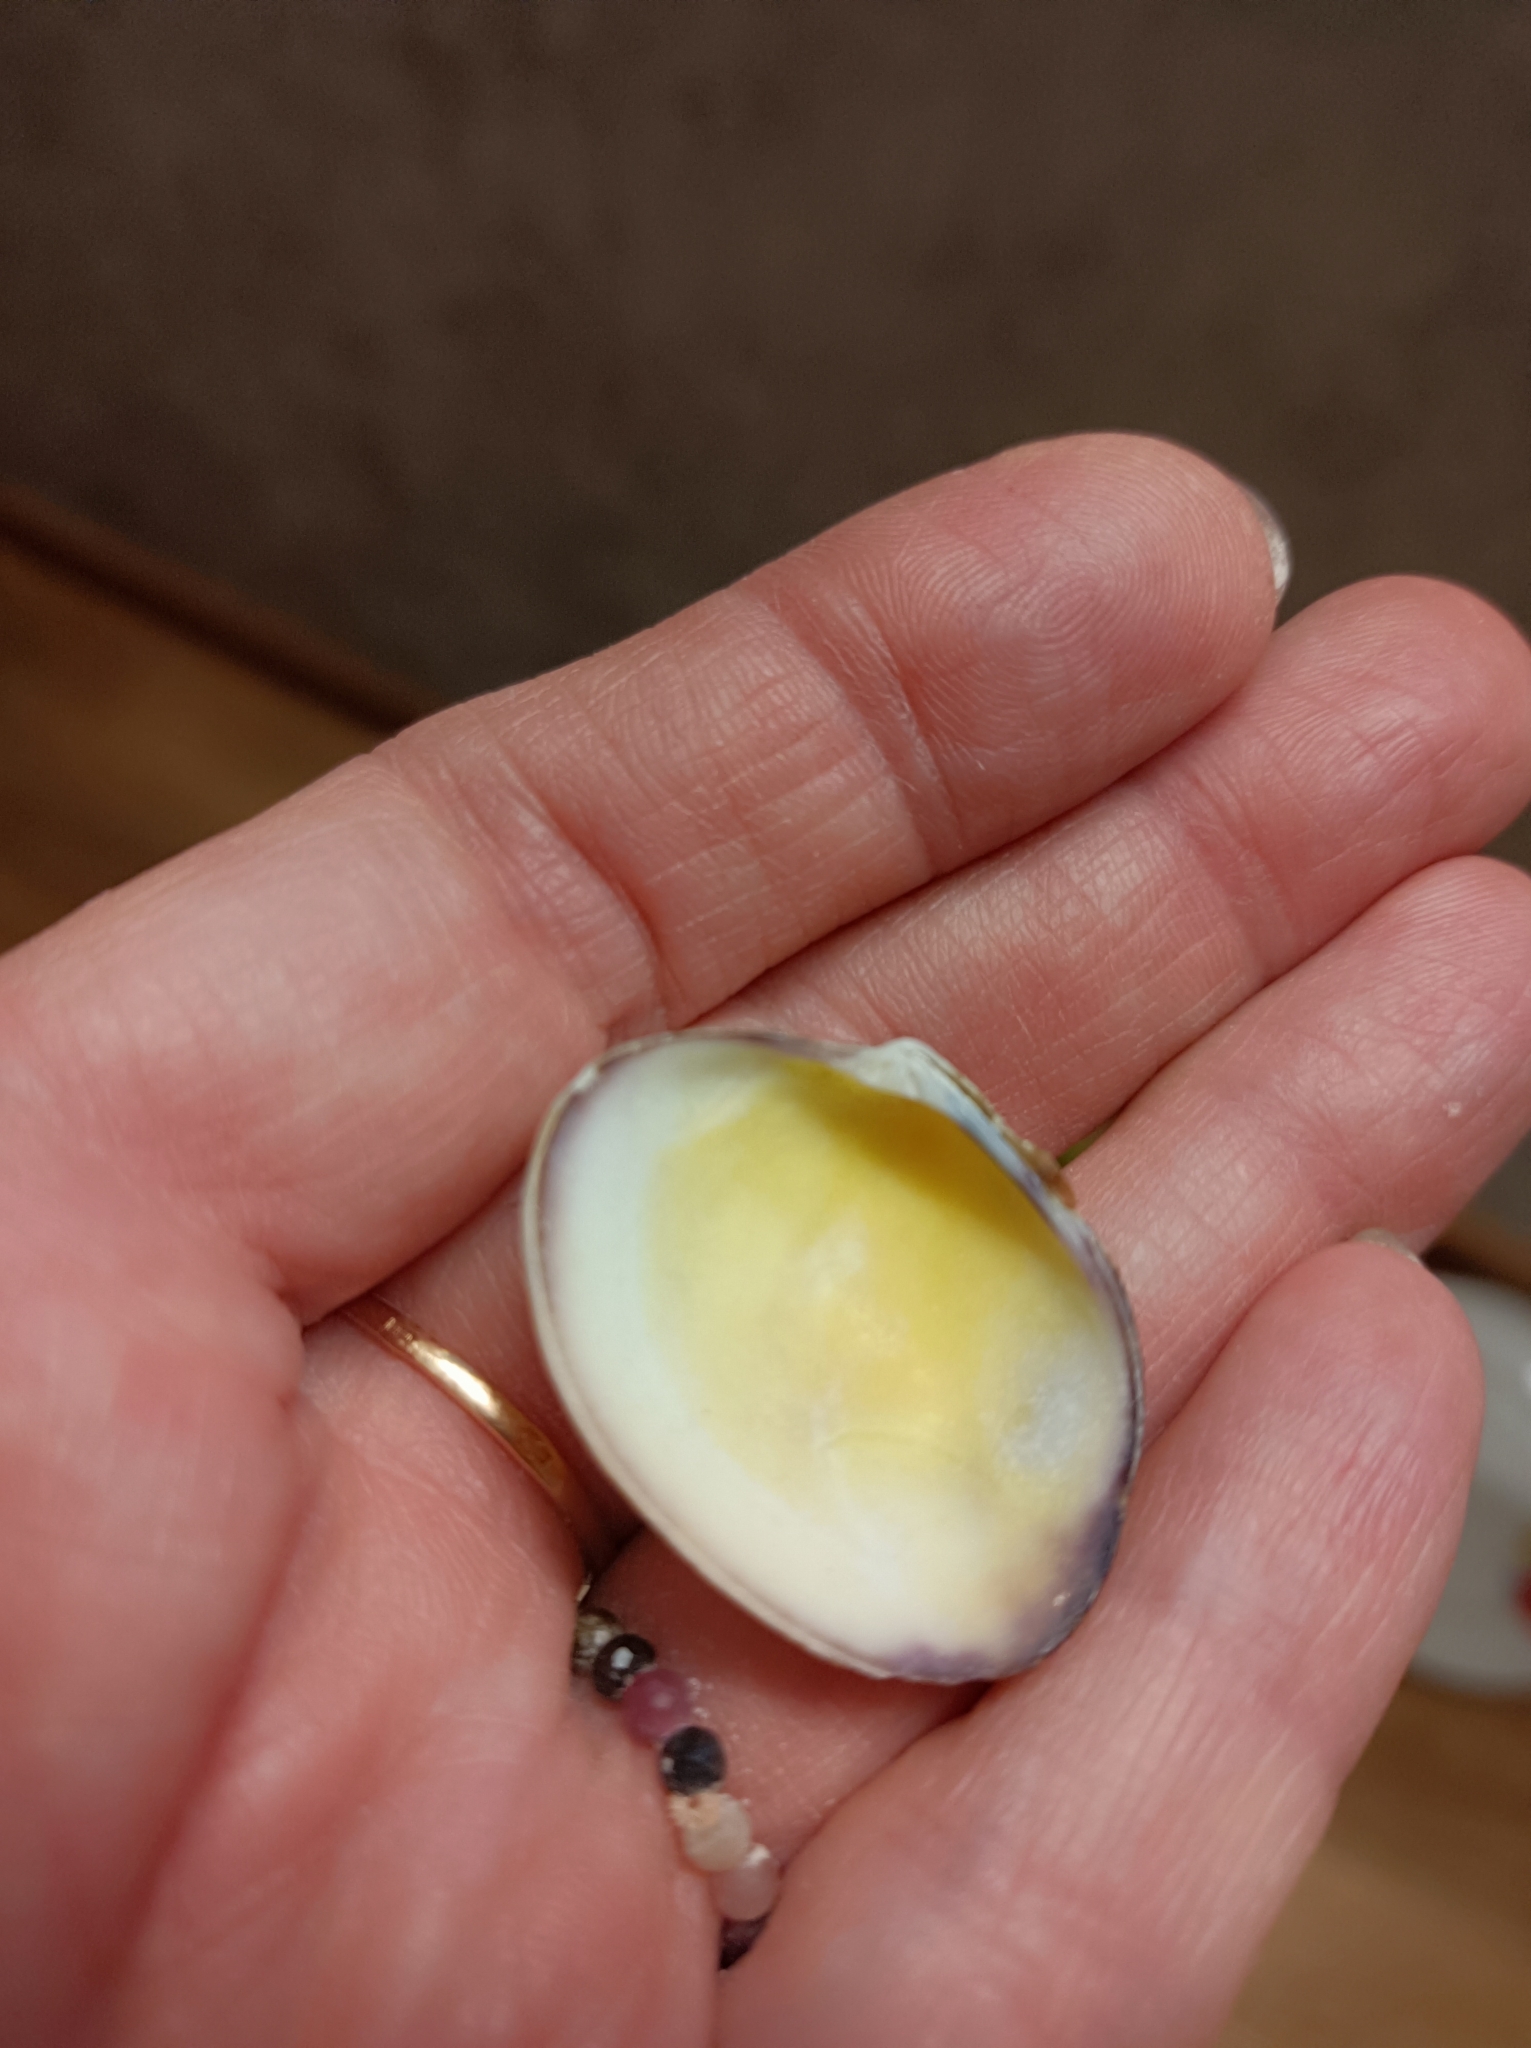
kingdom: Animalia
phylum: Mollusca
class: Bivalvia
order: Venerida
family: Veneridae
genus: Polititapes
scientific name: Polititapes aureus
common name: Golden carpet shell
